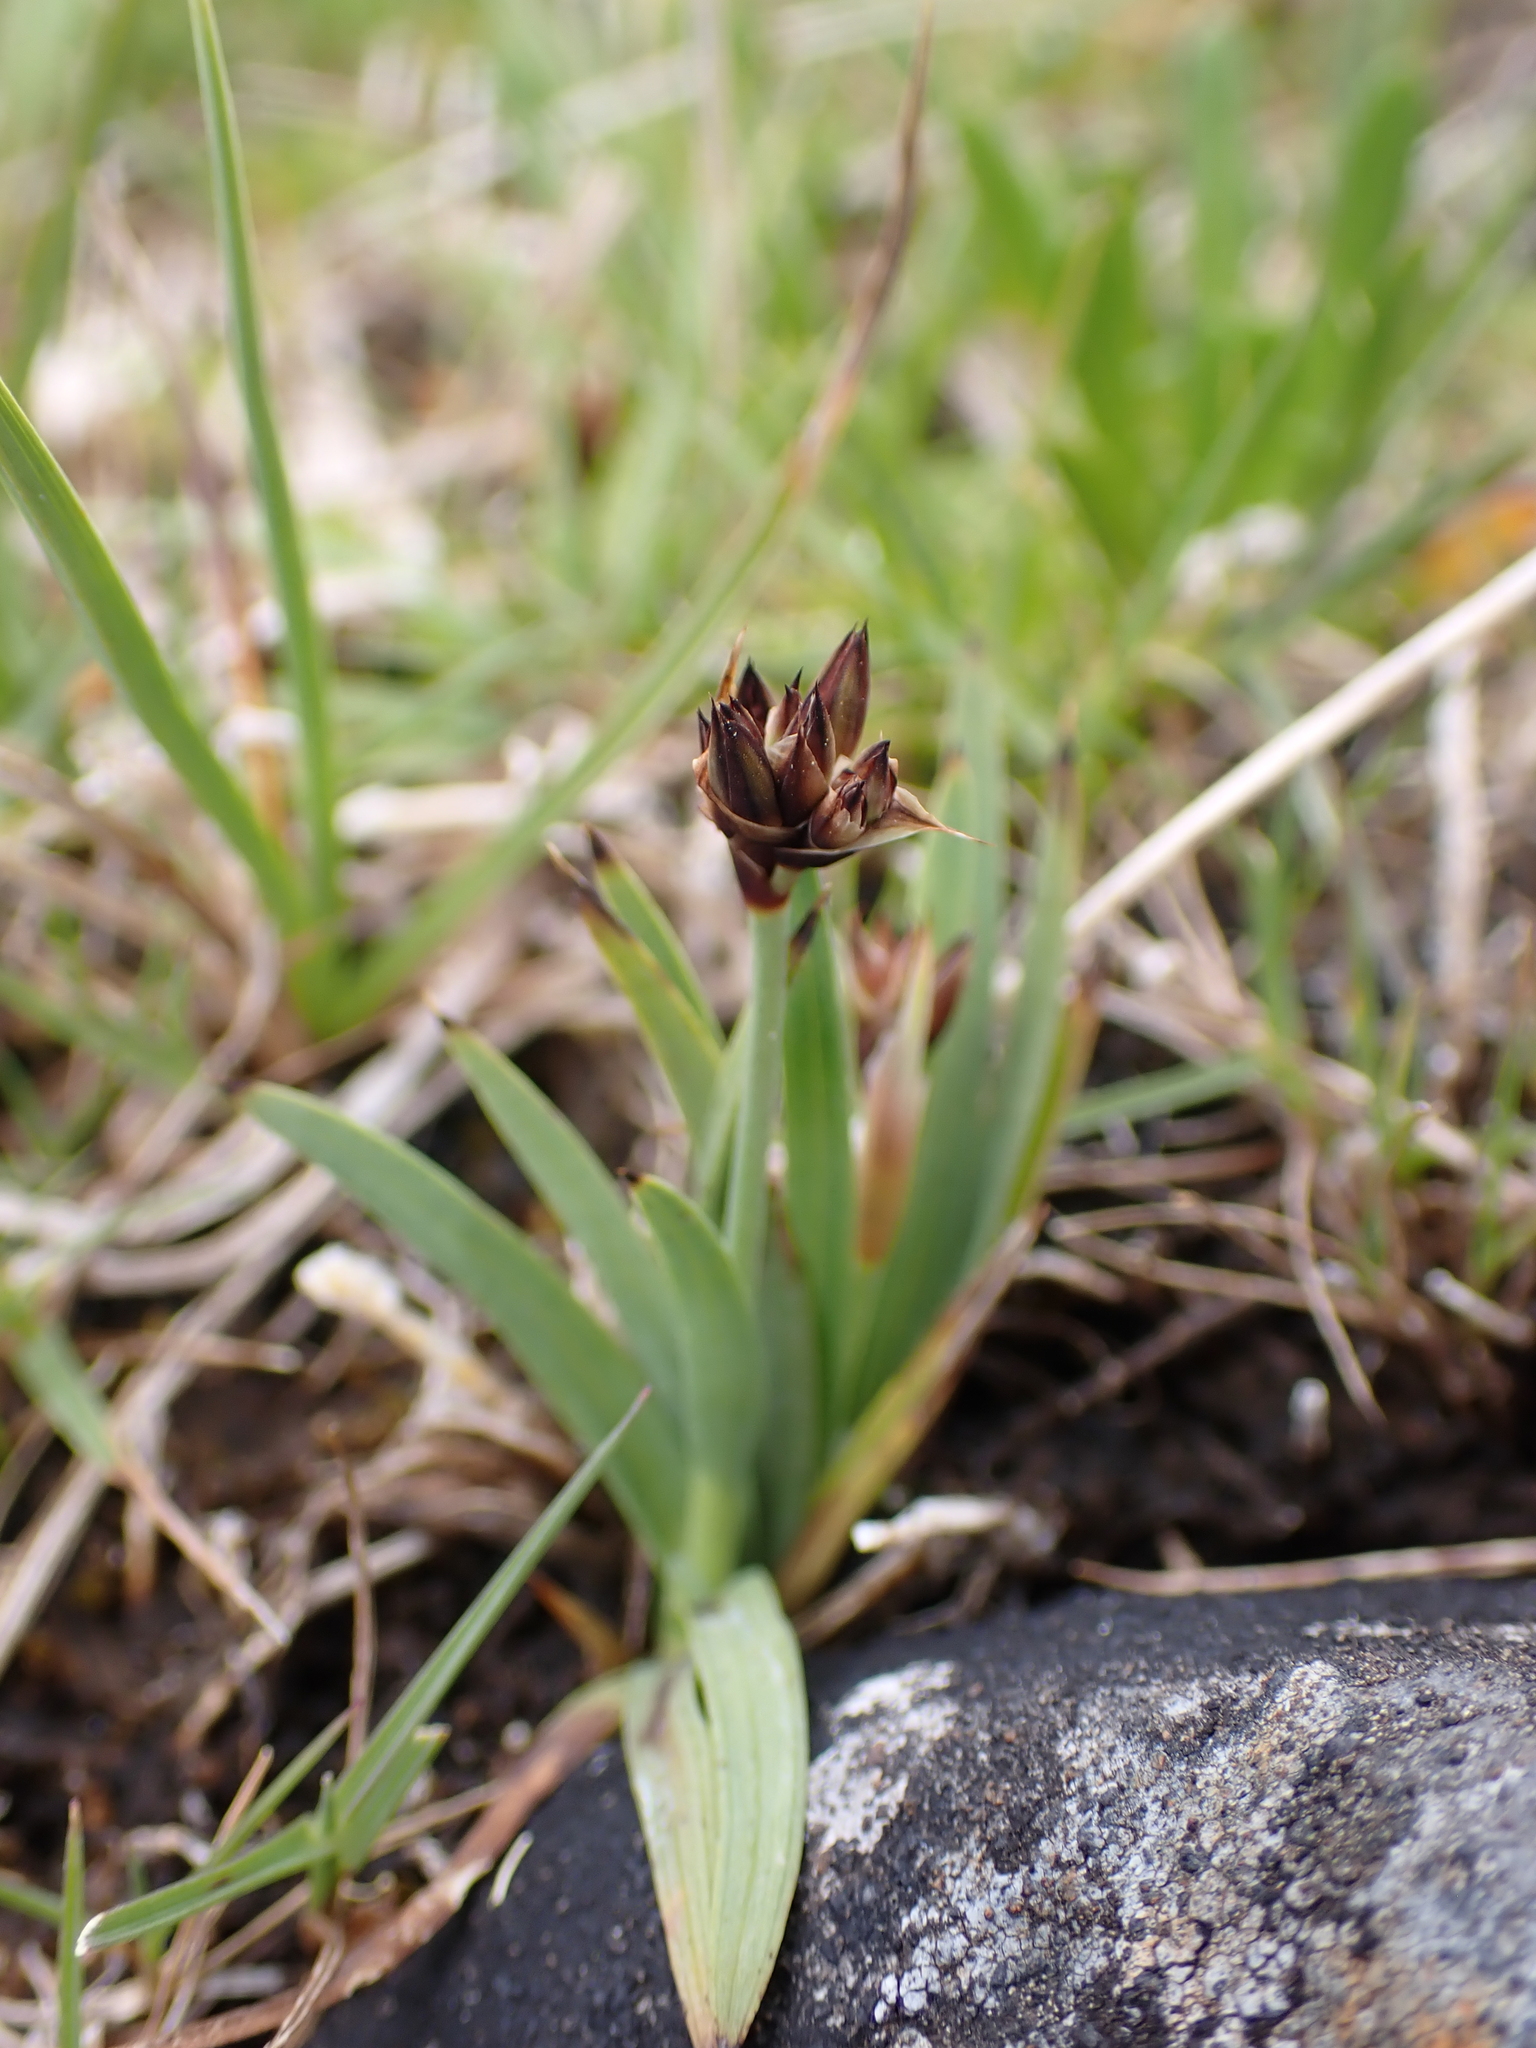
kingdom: Plantae
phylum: Tracheophyta
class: Liliopsida
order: Poales
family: Juncaceae
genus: Juncus
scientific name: Juncus falcatus
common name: Sickle-leaf rush
